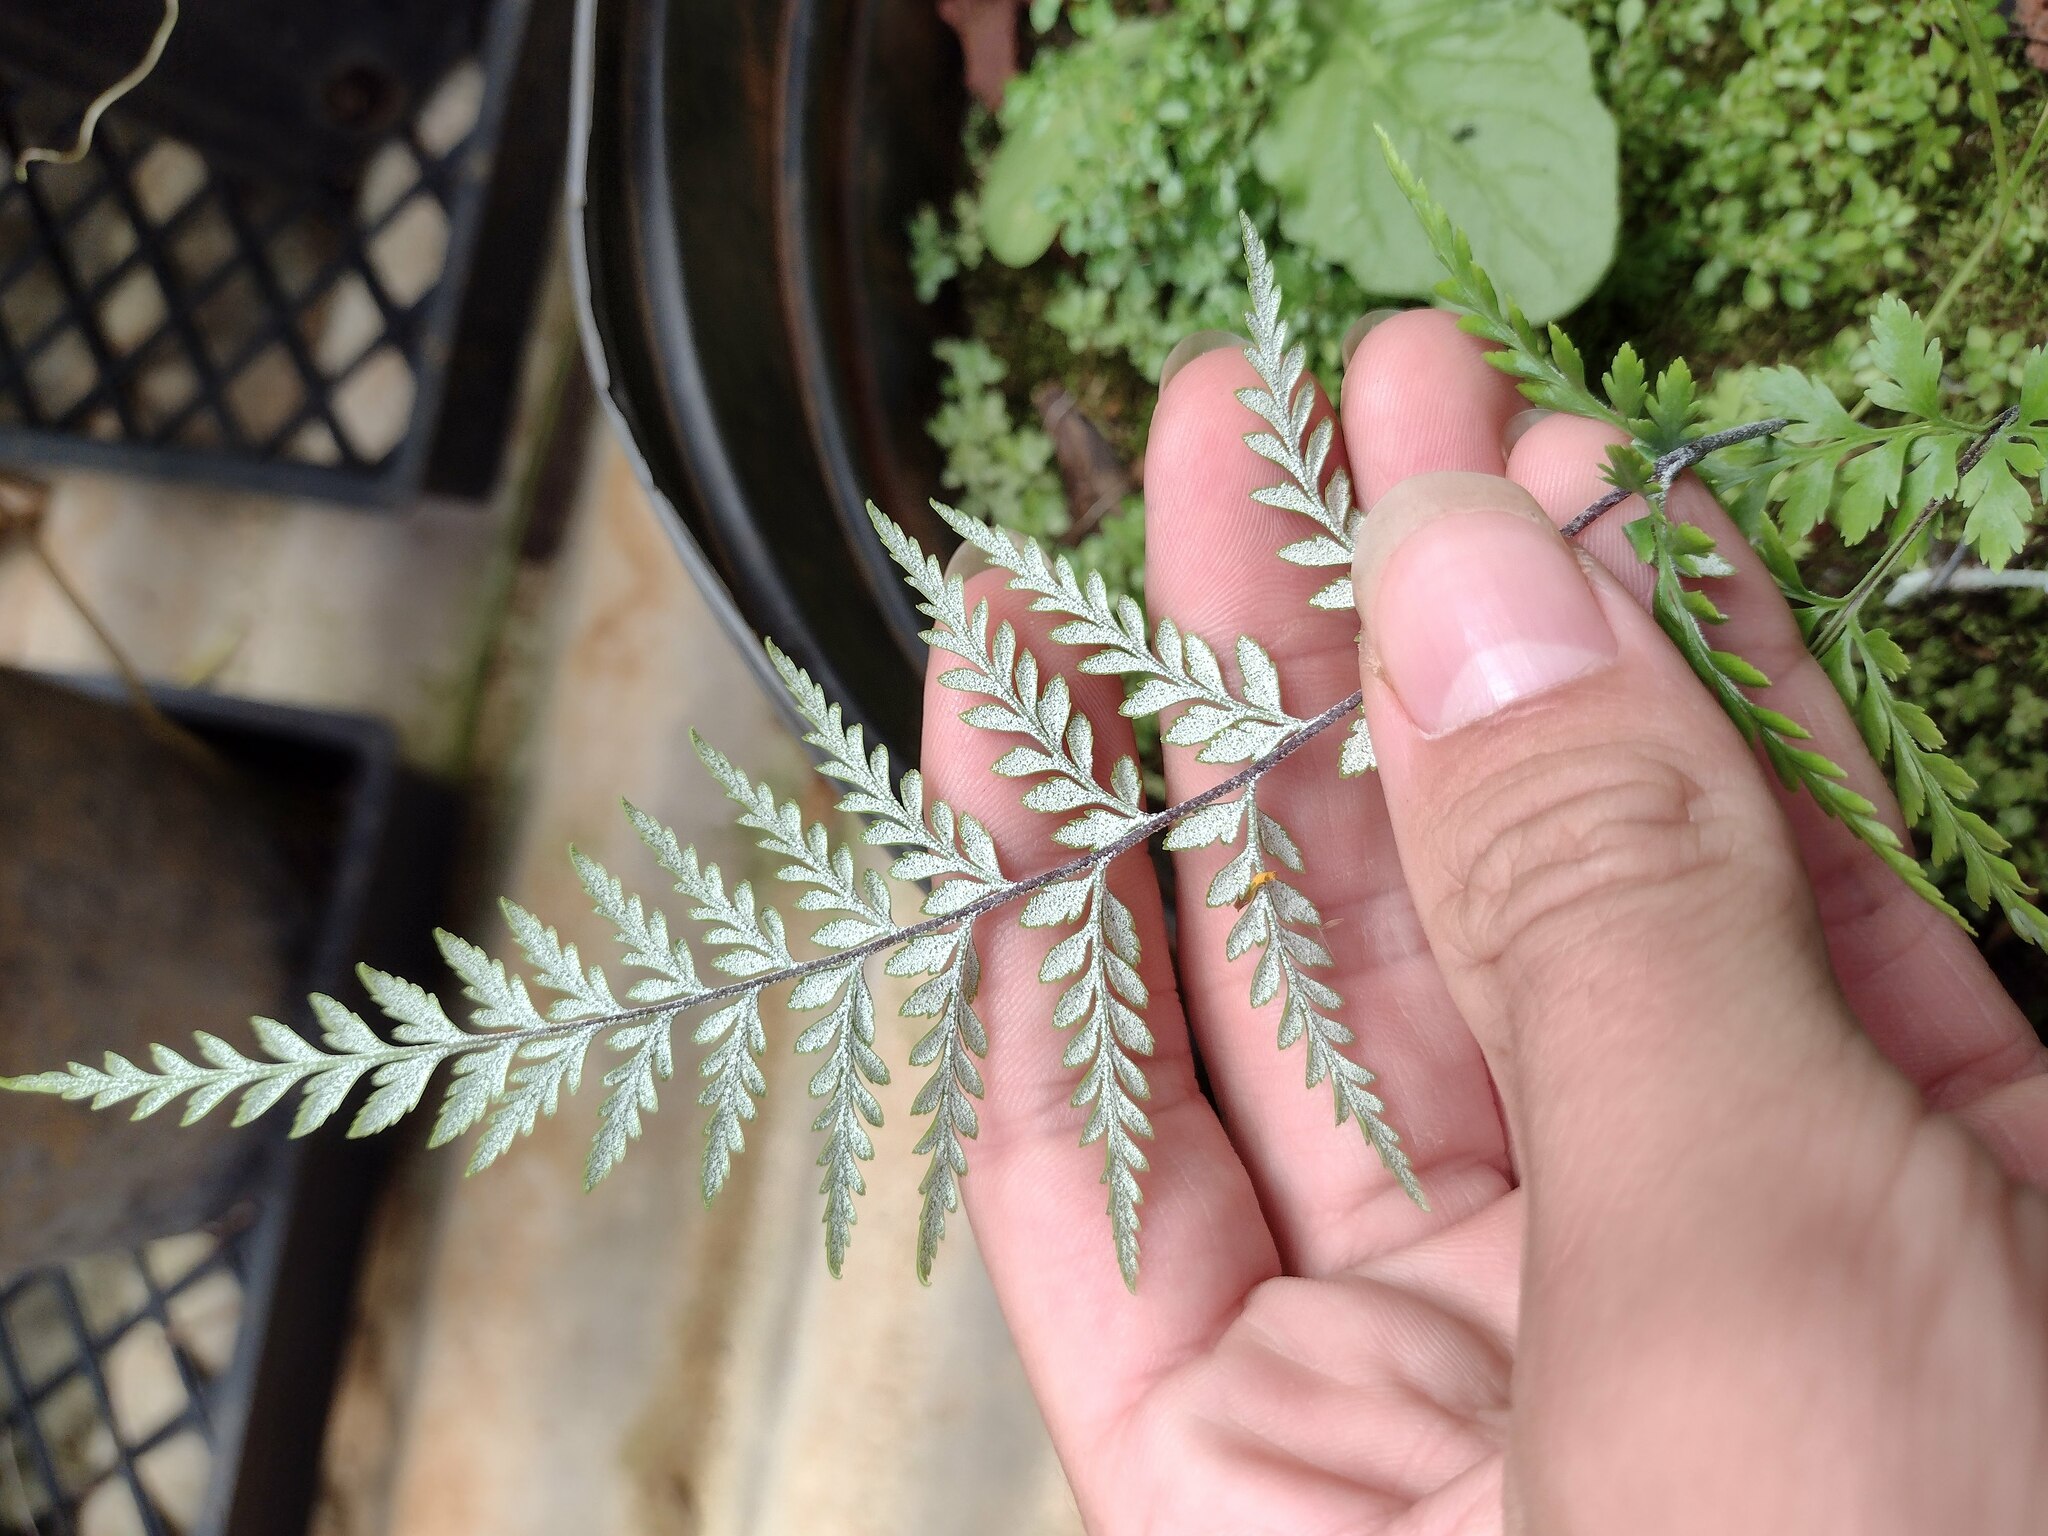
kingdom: Plantae
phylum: Tracheophyta
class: Polypodiopsida
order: Polypodiales
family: Pteridaceae
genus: Pityrogramma
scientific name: Pityrogramma calomelanos
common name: Dixie silverback fern
